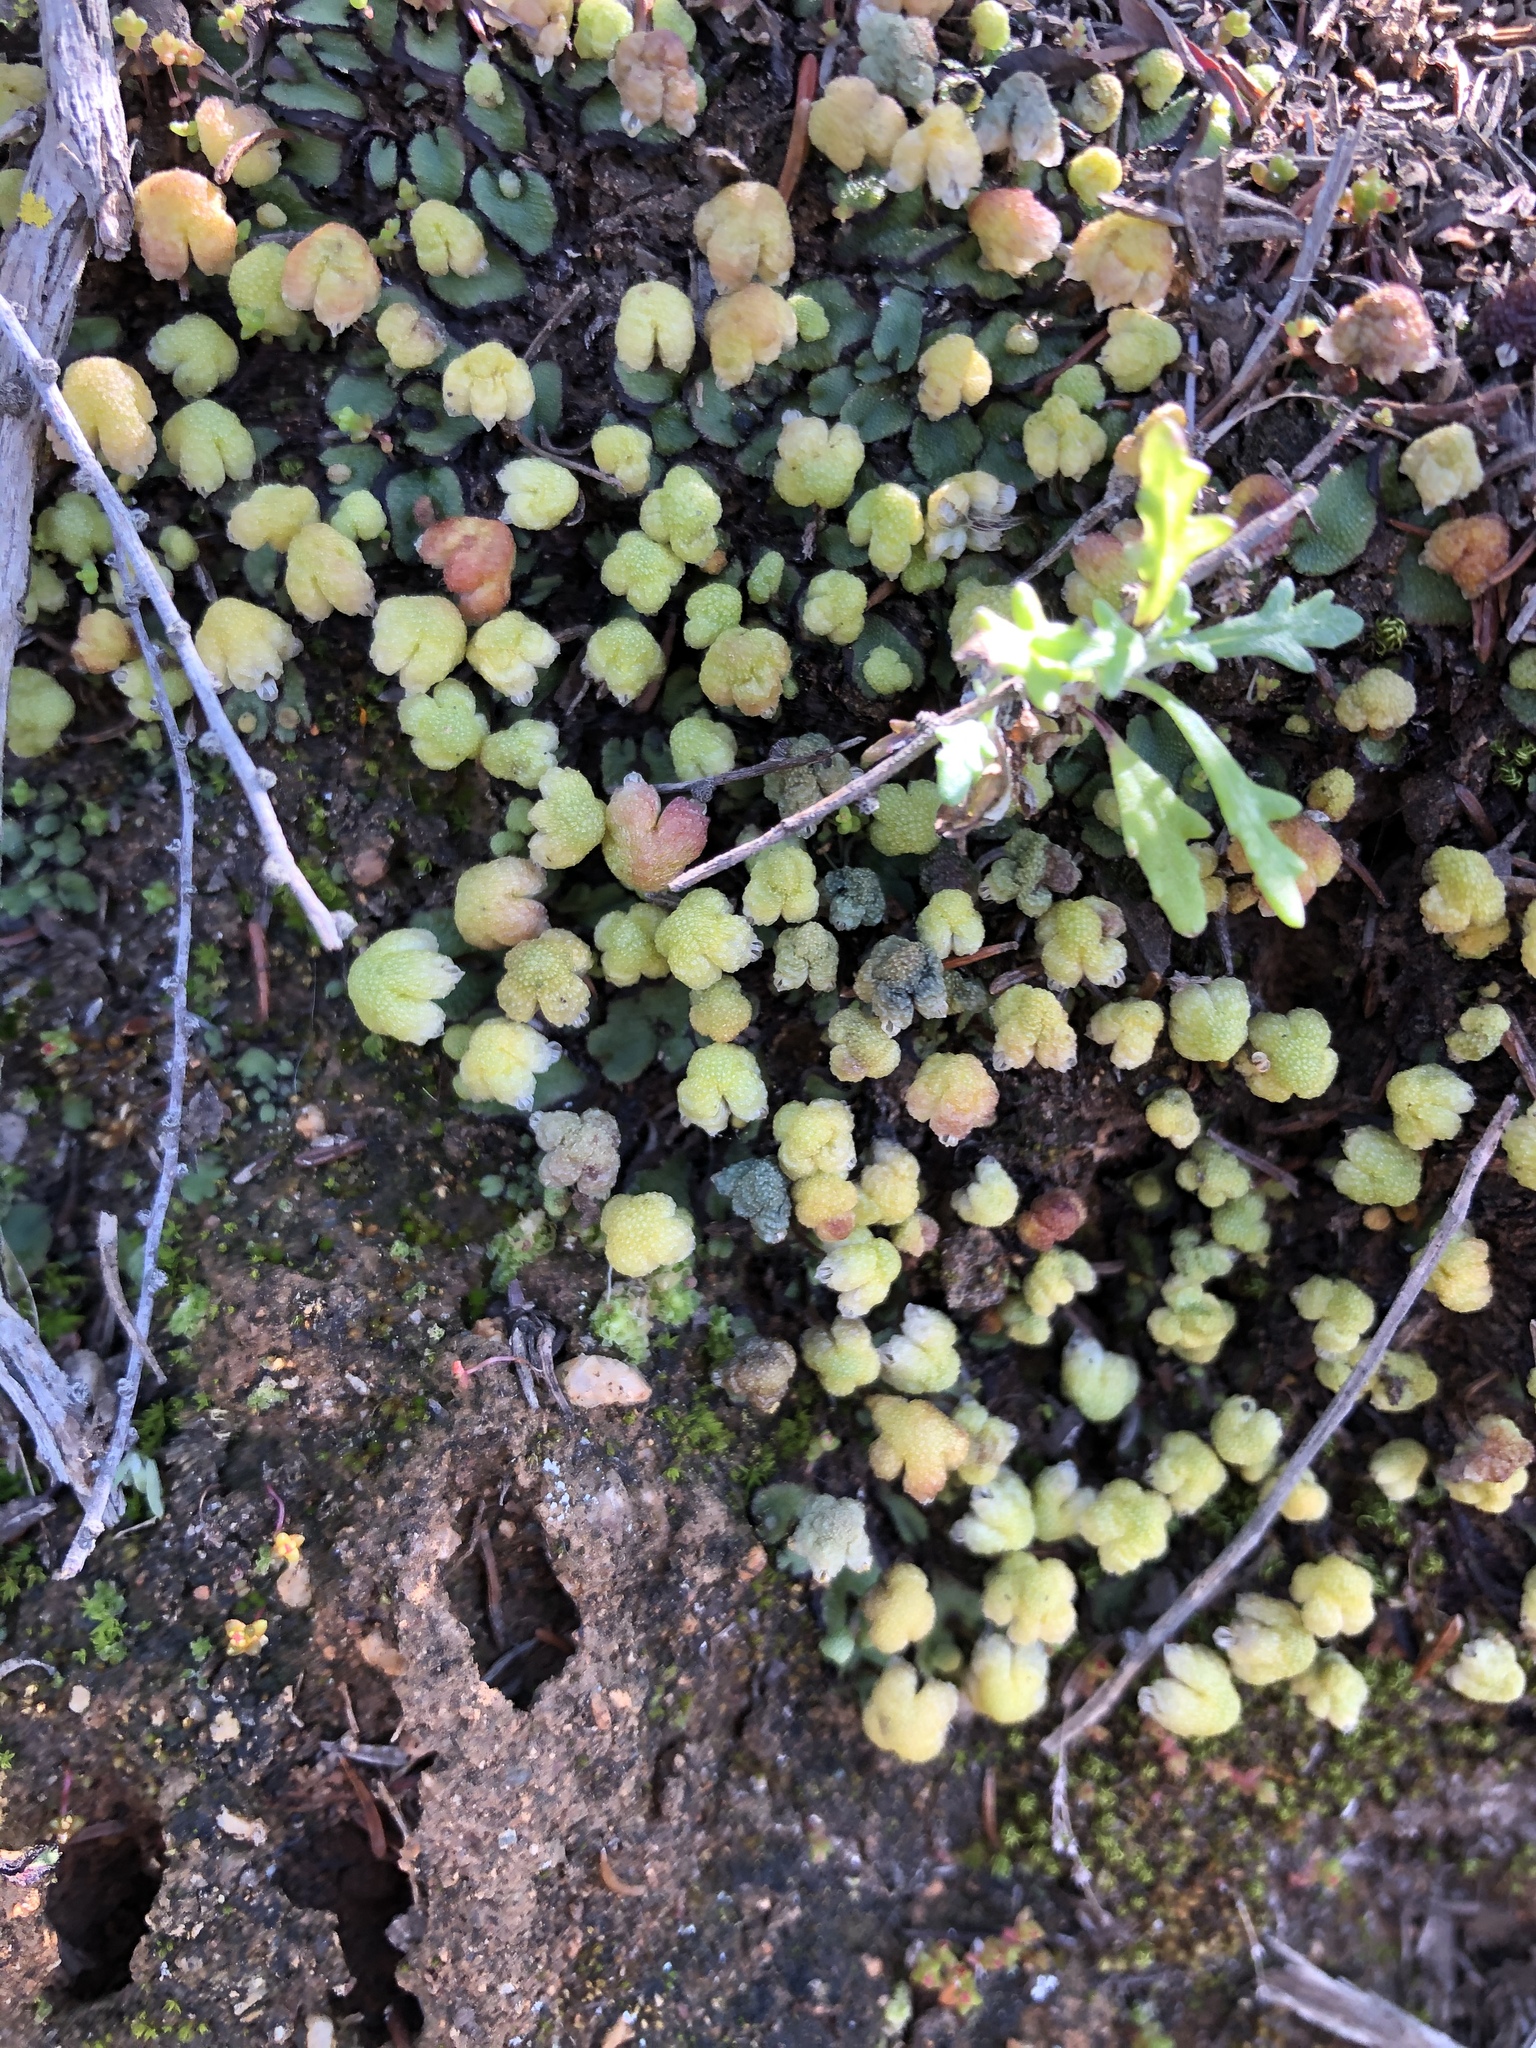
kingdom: Plantae
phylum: Marchantiophyta
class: Marchantiopsida
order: Marchantiales
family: Aytoniaceae
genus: Asterella
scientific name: Asterella californica
